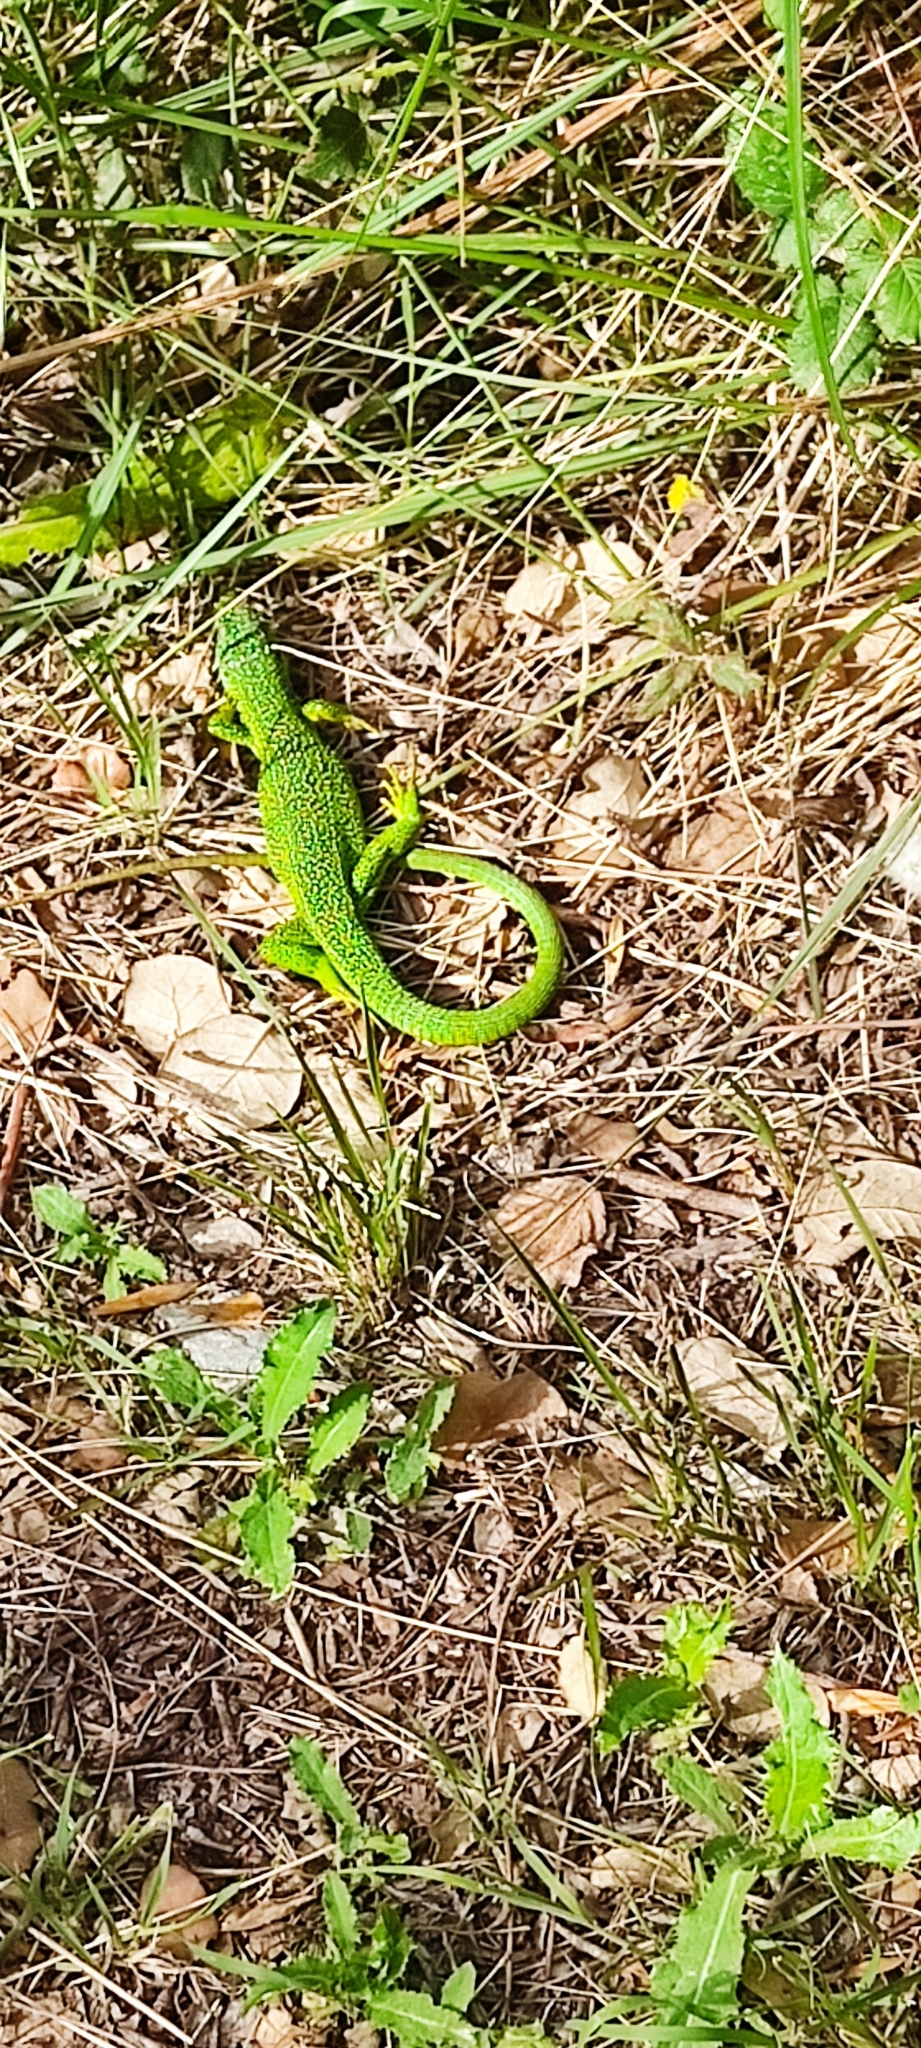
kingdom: Animalia
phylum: Chordata
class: Squamata
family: Lacertidae
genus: Lacerta
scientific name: Lacerta bilineata
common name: Western green lizard
